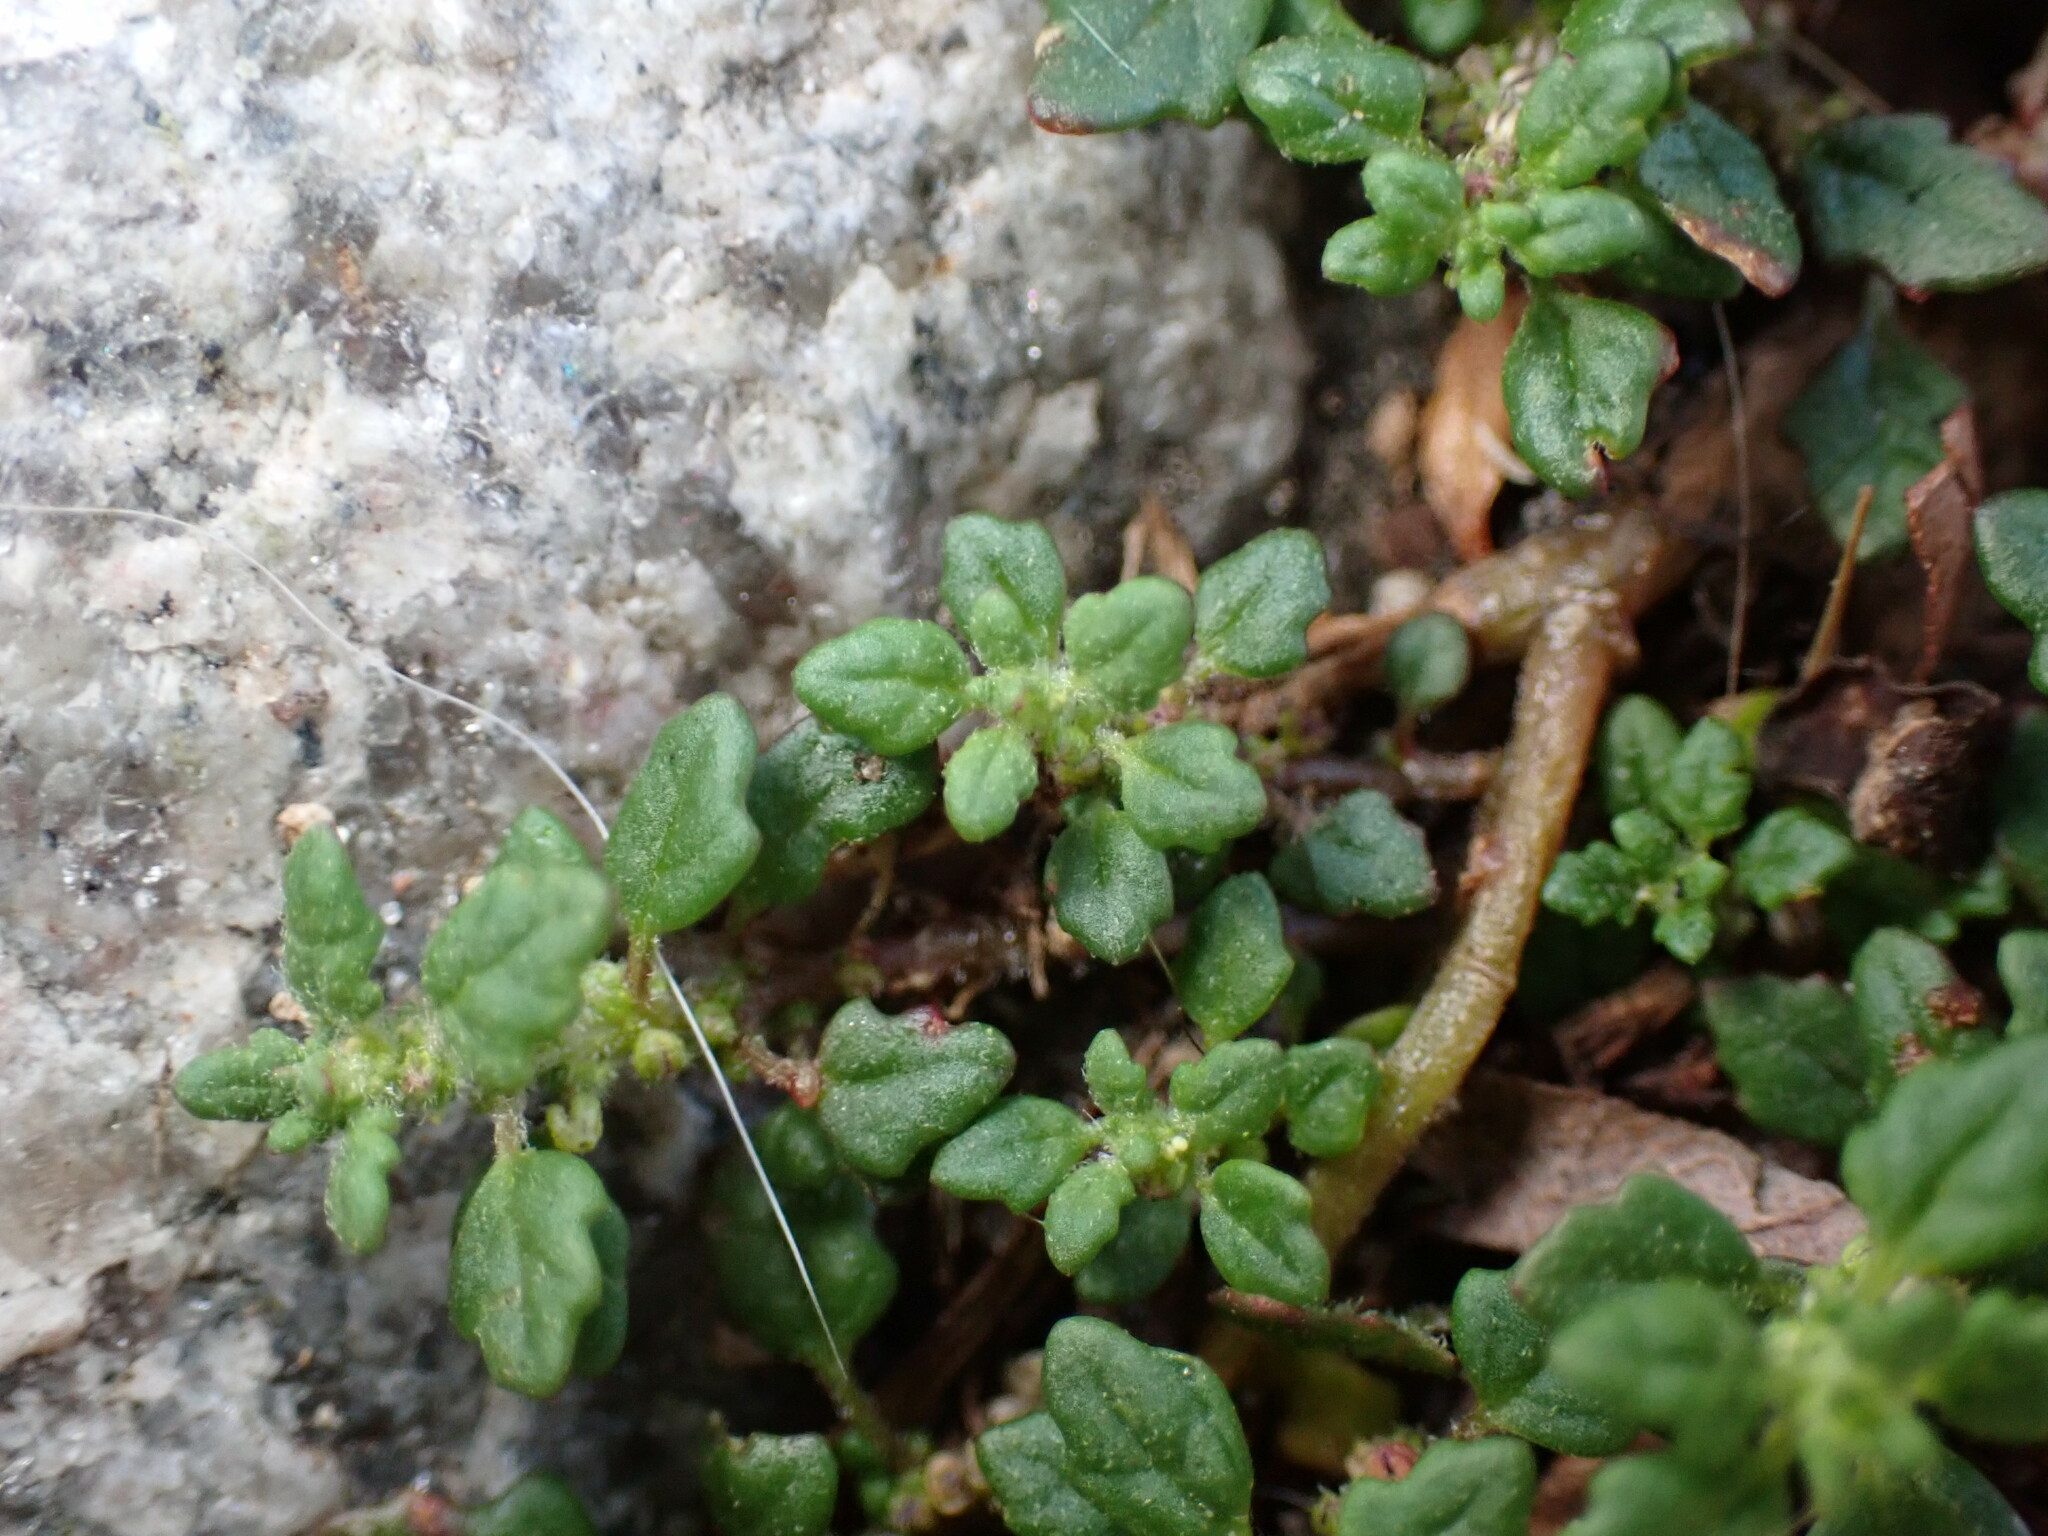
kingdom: Plantae
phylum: Tracheophyta
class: Magnoliopsida
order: Caryophyllales
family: Amaranthaceae
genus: Dysphania
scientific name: Dysphania pumilio
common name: Clammy goosefoot
